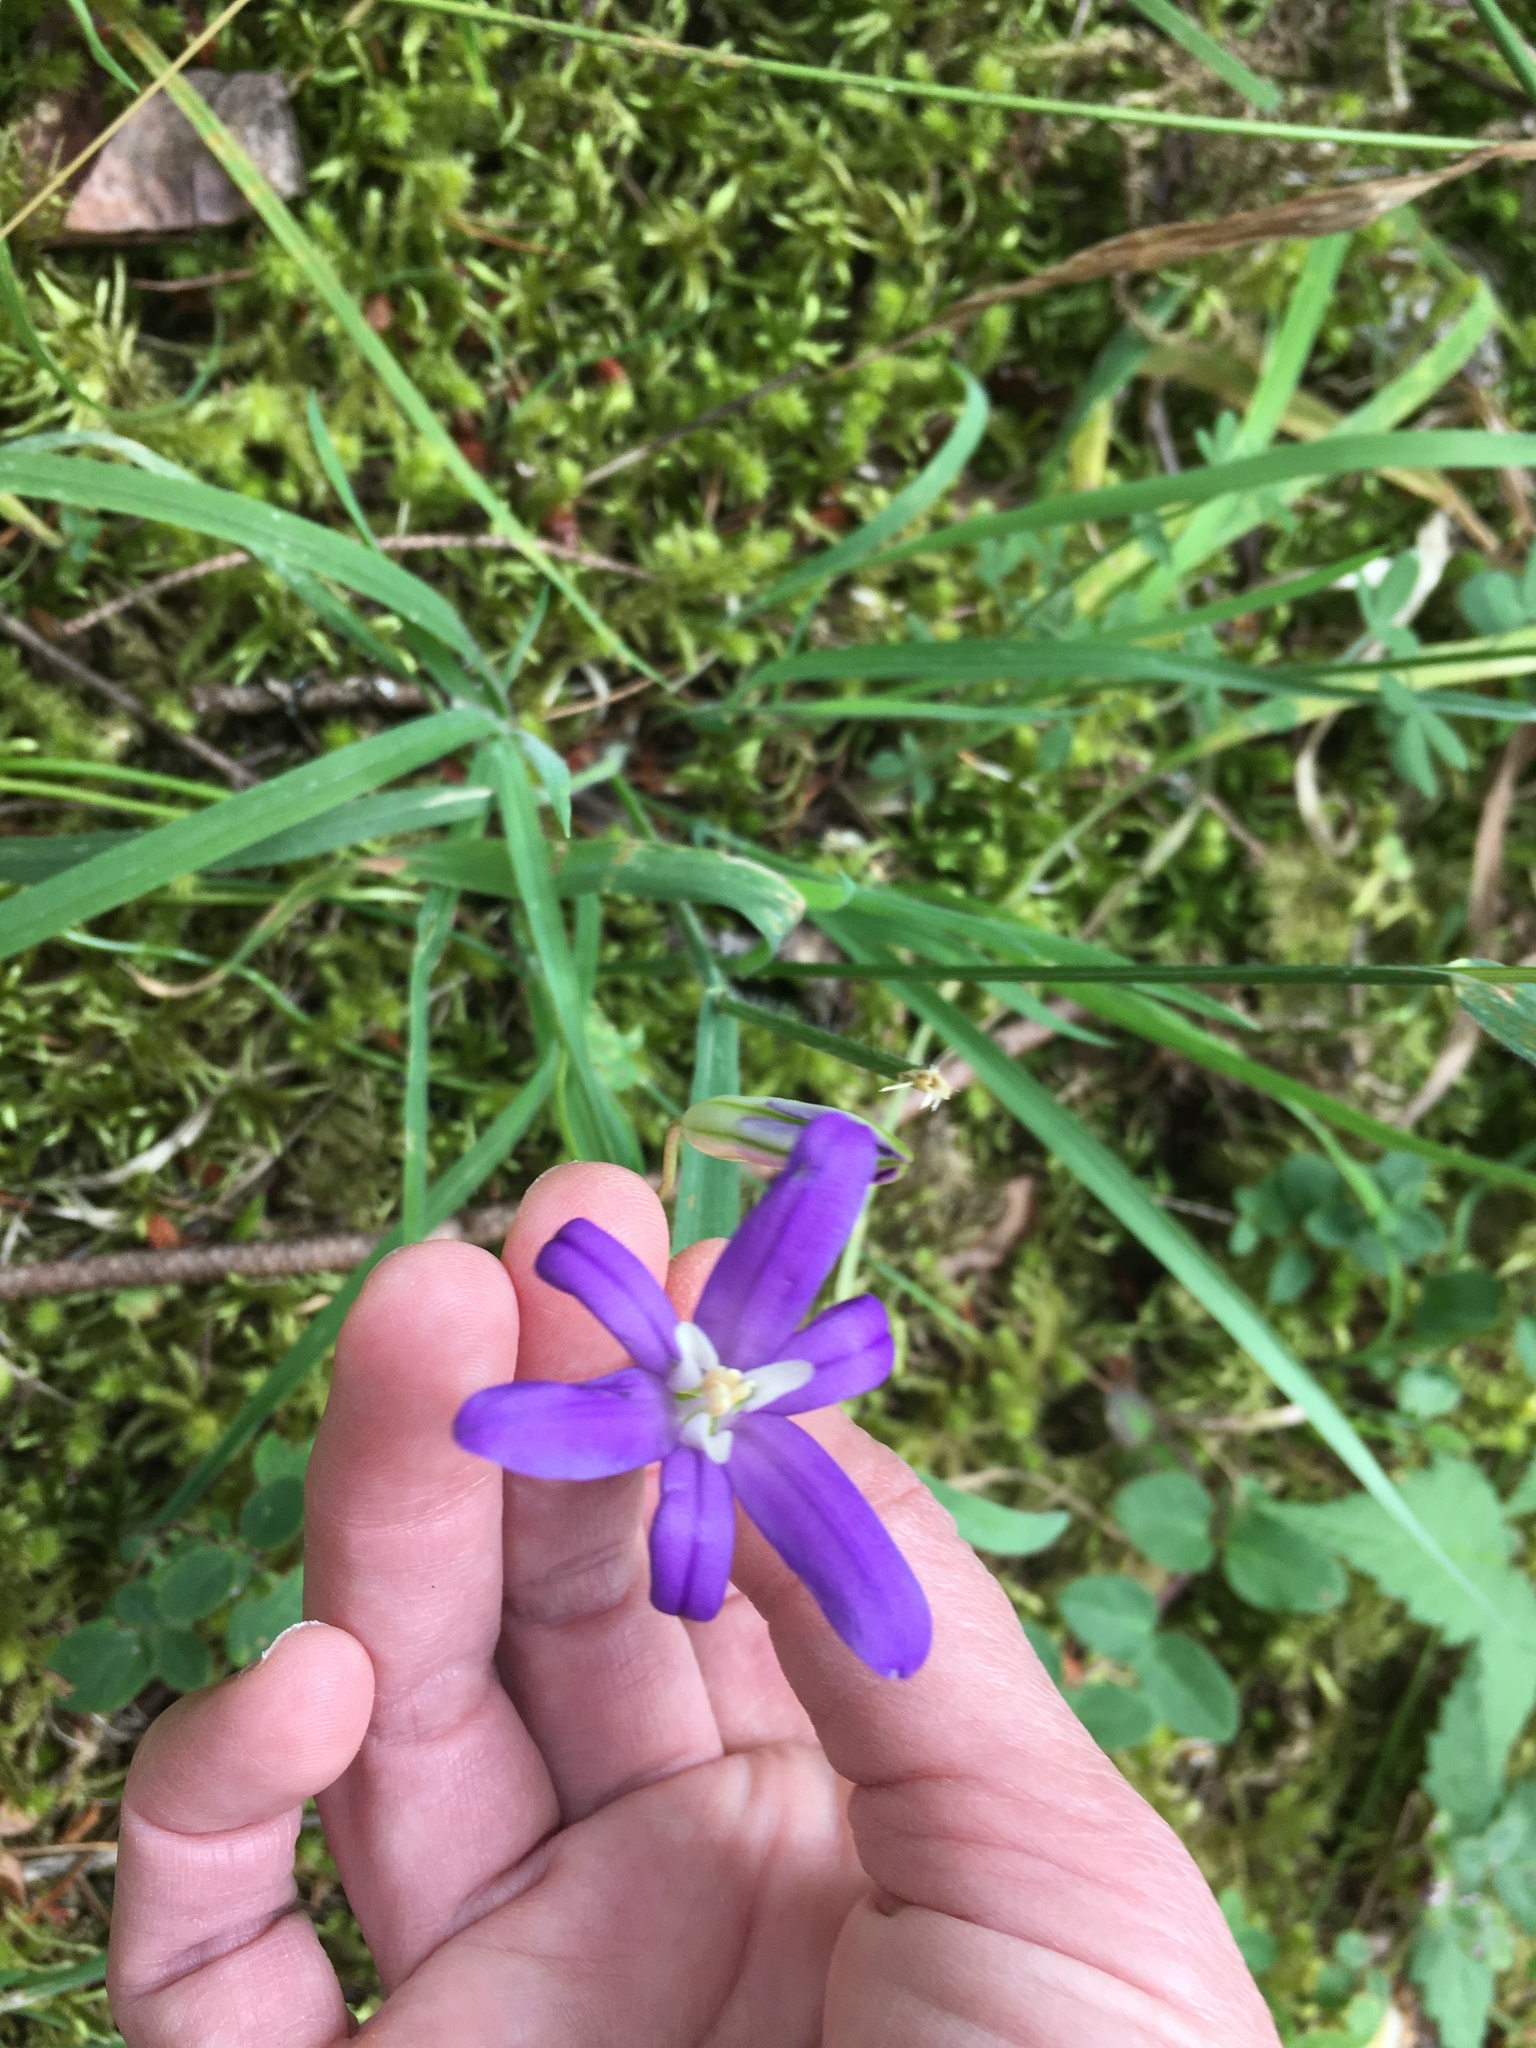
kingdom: Plantae
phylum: Tracheophyta
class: Liliopsida
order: Asparagales
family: Asparagaceae
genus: Brodiaea
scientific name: Brodiaea coronaria
